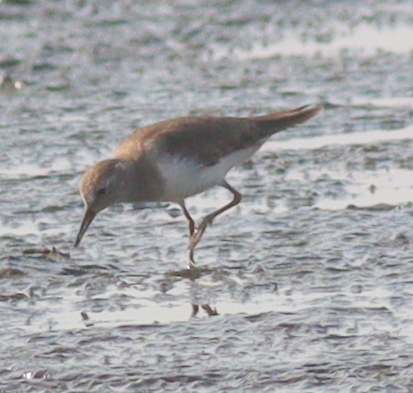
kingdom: Animalia
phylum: Chordata
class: Aves
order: Charadriiformes
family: Scolopacidae
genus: Calidris
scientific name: Calidris temminckii
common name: Temminck's stint
